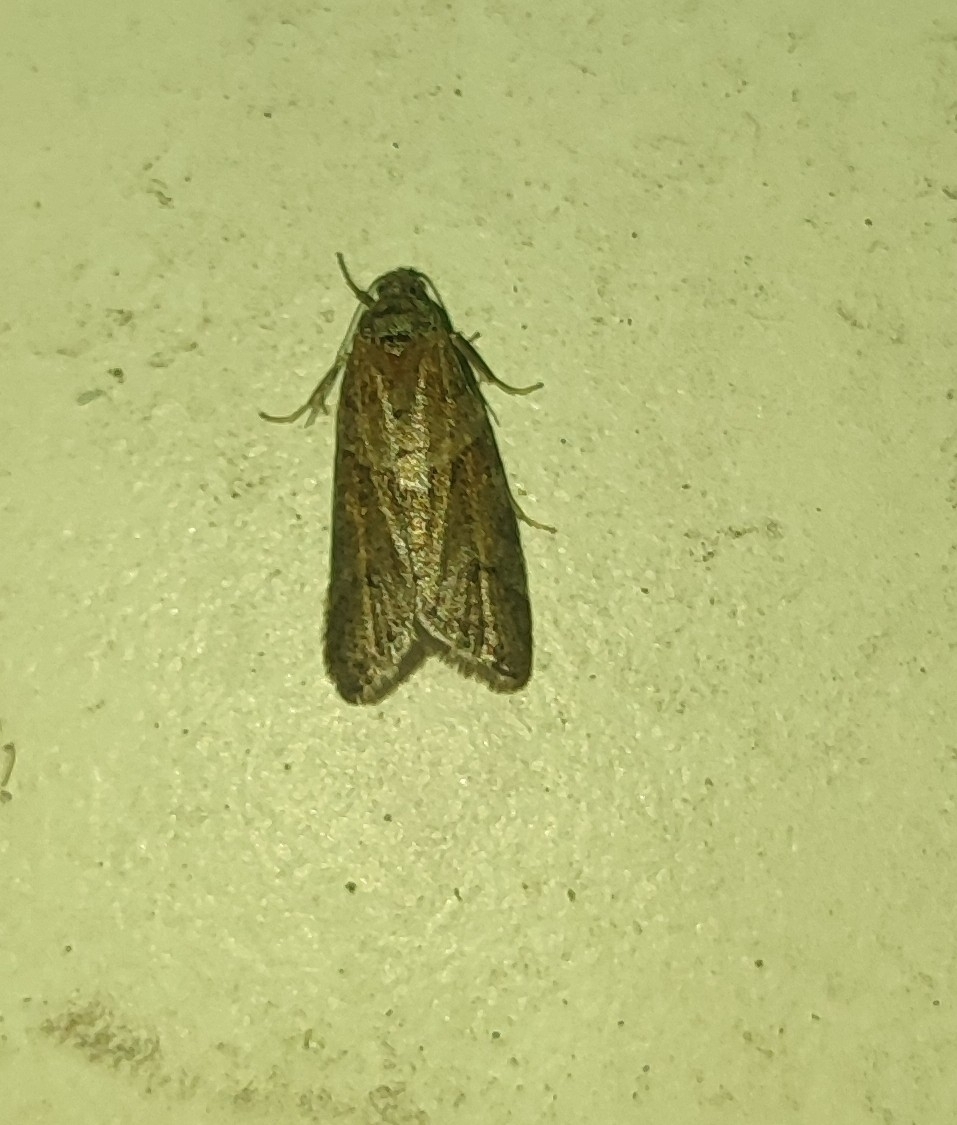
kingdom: Animalia
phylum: Arthropoda
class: Insecta
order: Lepidoptera
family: Tortricidae
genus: Tortricodes
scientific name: Tortricodes alternella
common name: Winter shade
